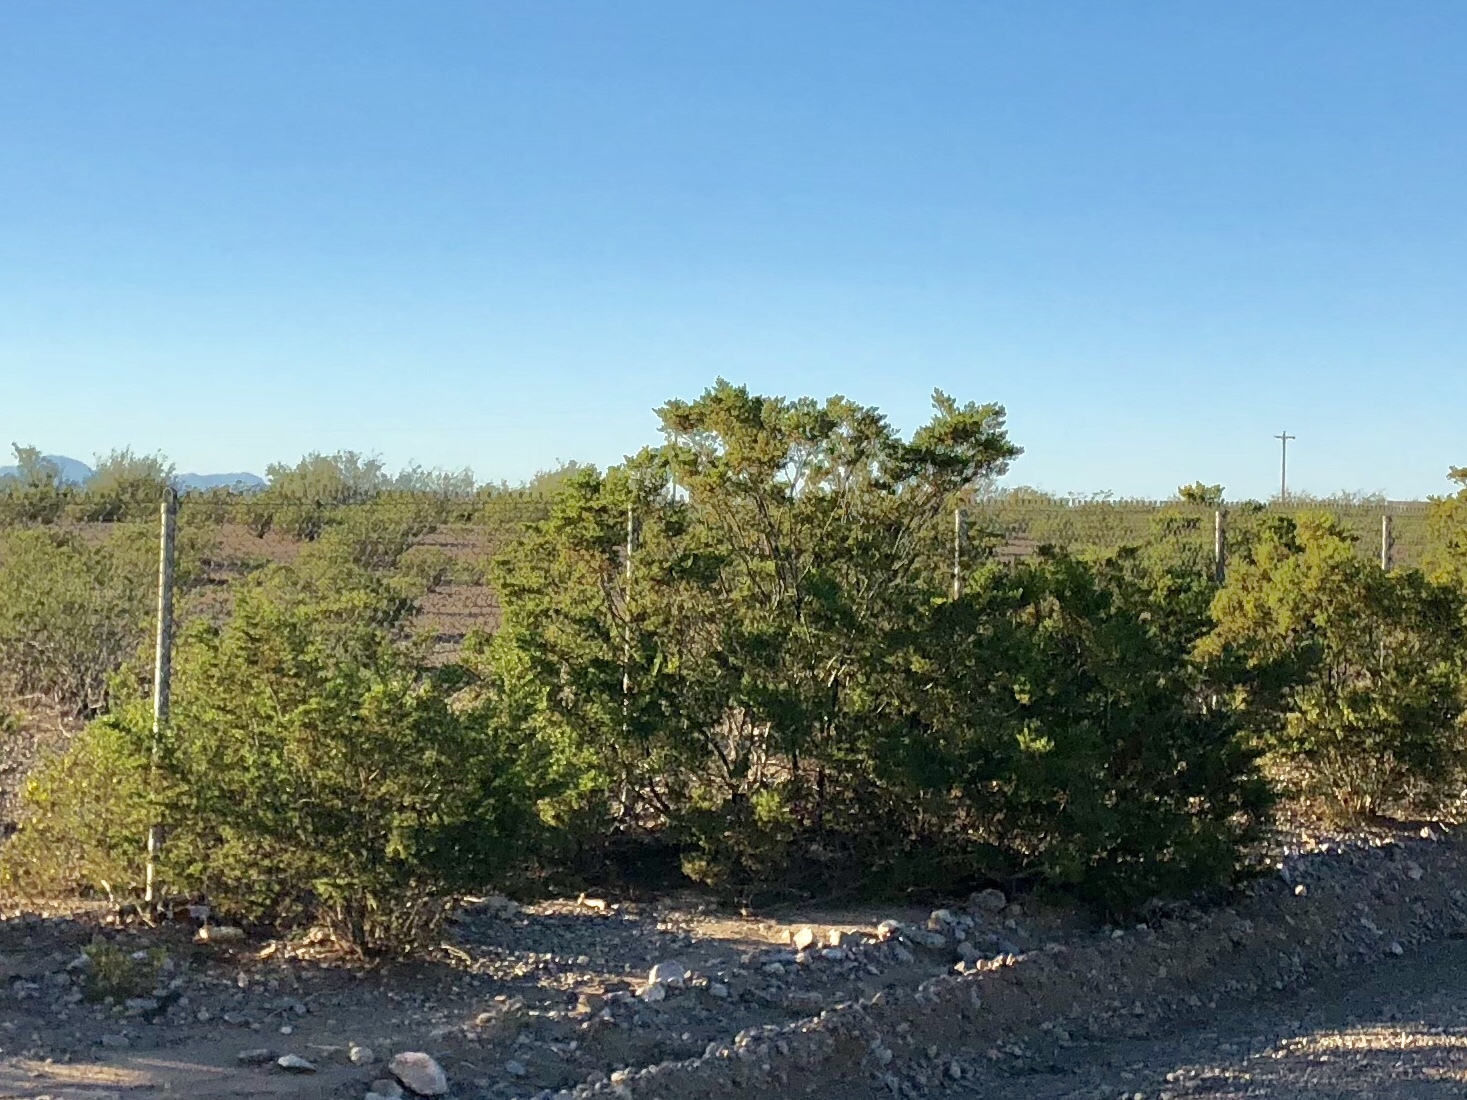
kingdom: Plantae
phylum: Tracheophyta
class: Magnoliopsida
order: Zygophyllales
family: Zygophyllaceae
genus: Larrea
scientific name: Larrea tridentata
